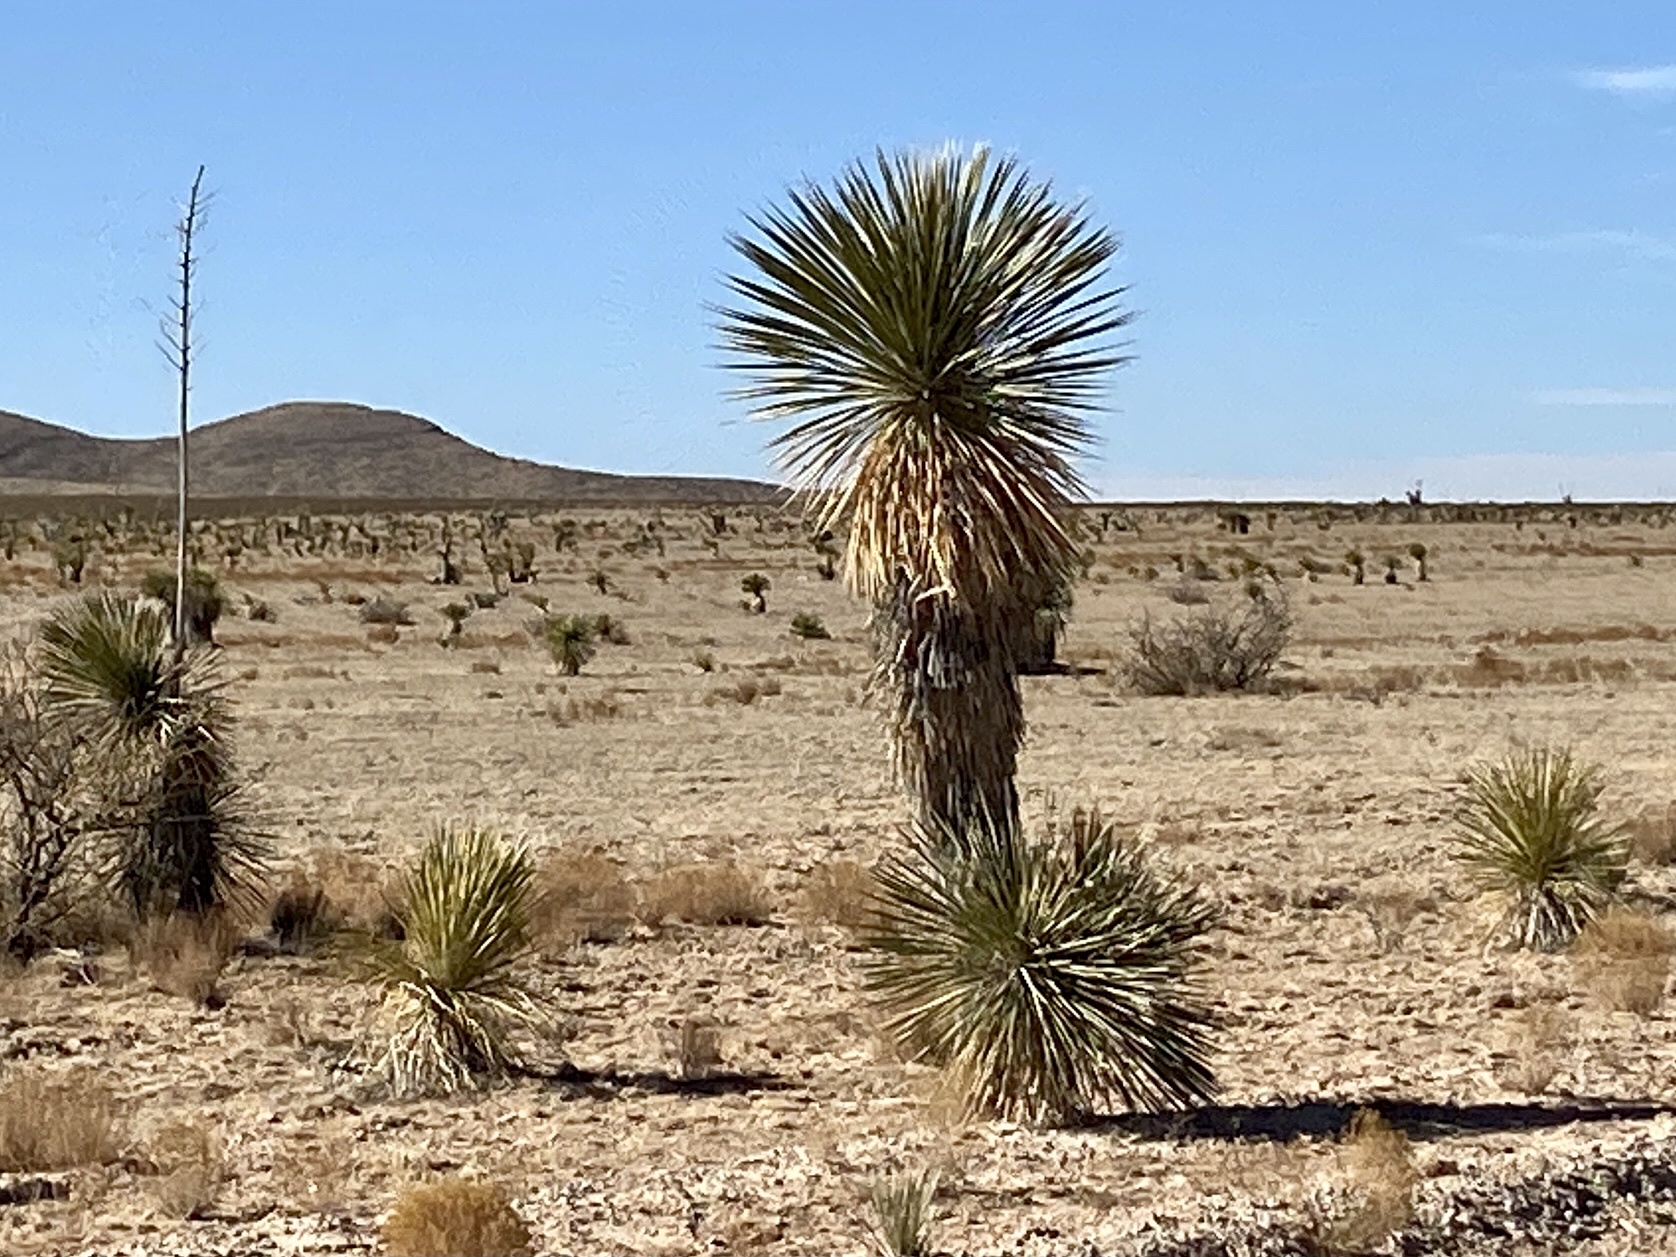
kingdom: Plantae
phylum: Tracheophyta
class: Liliopsida
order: Asparagales
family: Asparagaceae
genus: Yucca
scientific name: Yucca elata
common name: Palmella
